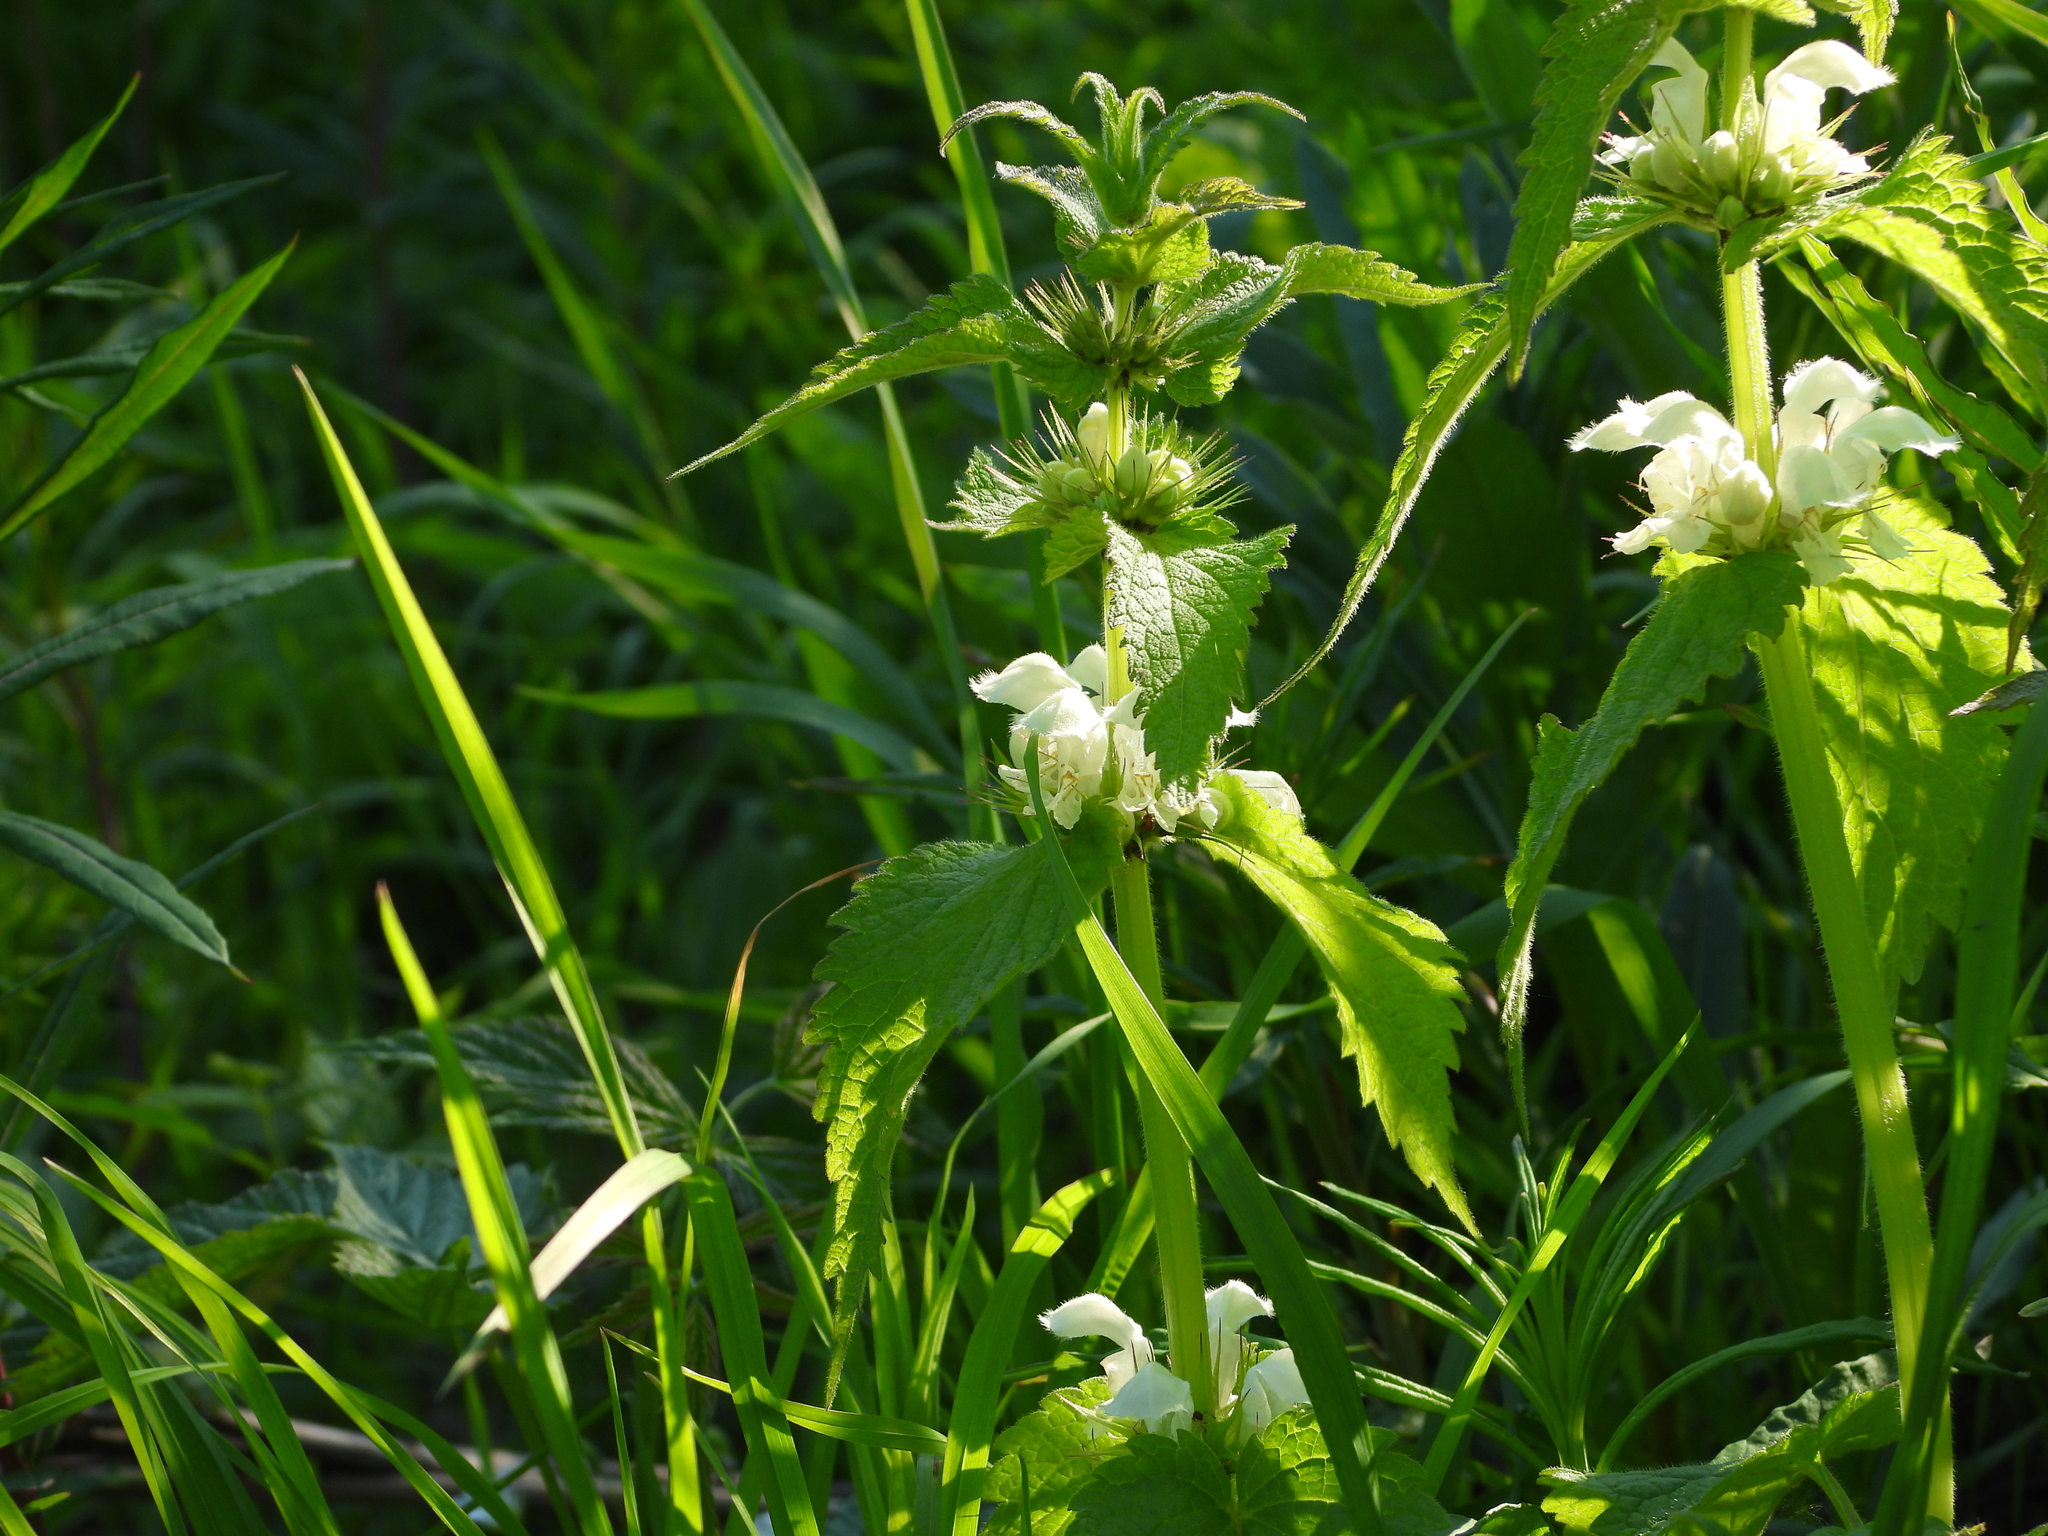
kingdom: Plantae
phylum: Tracheophyta
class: Magnoliopsida
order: Lamiales
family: Lamiaceae
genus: Lamium
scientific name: Lamium album
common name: White dead-nettle
